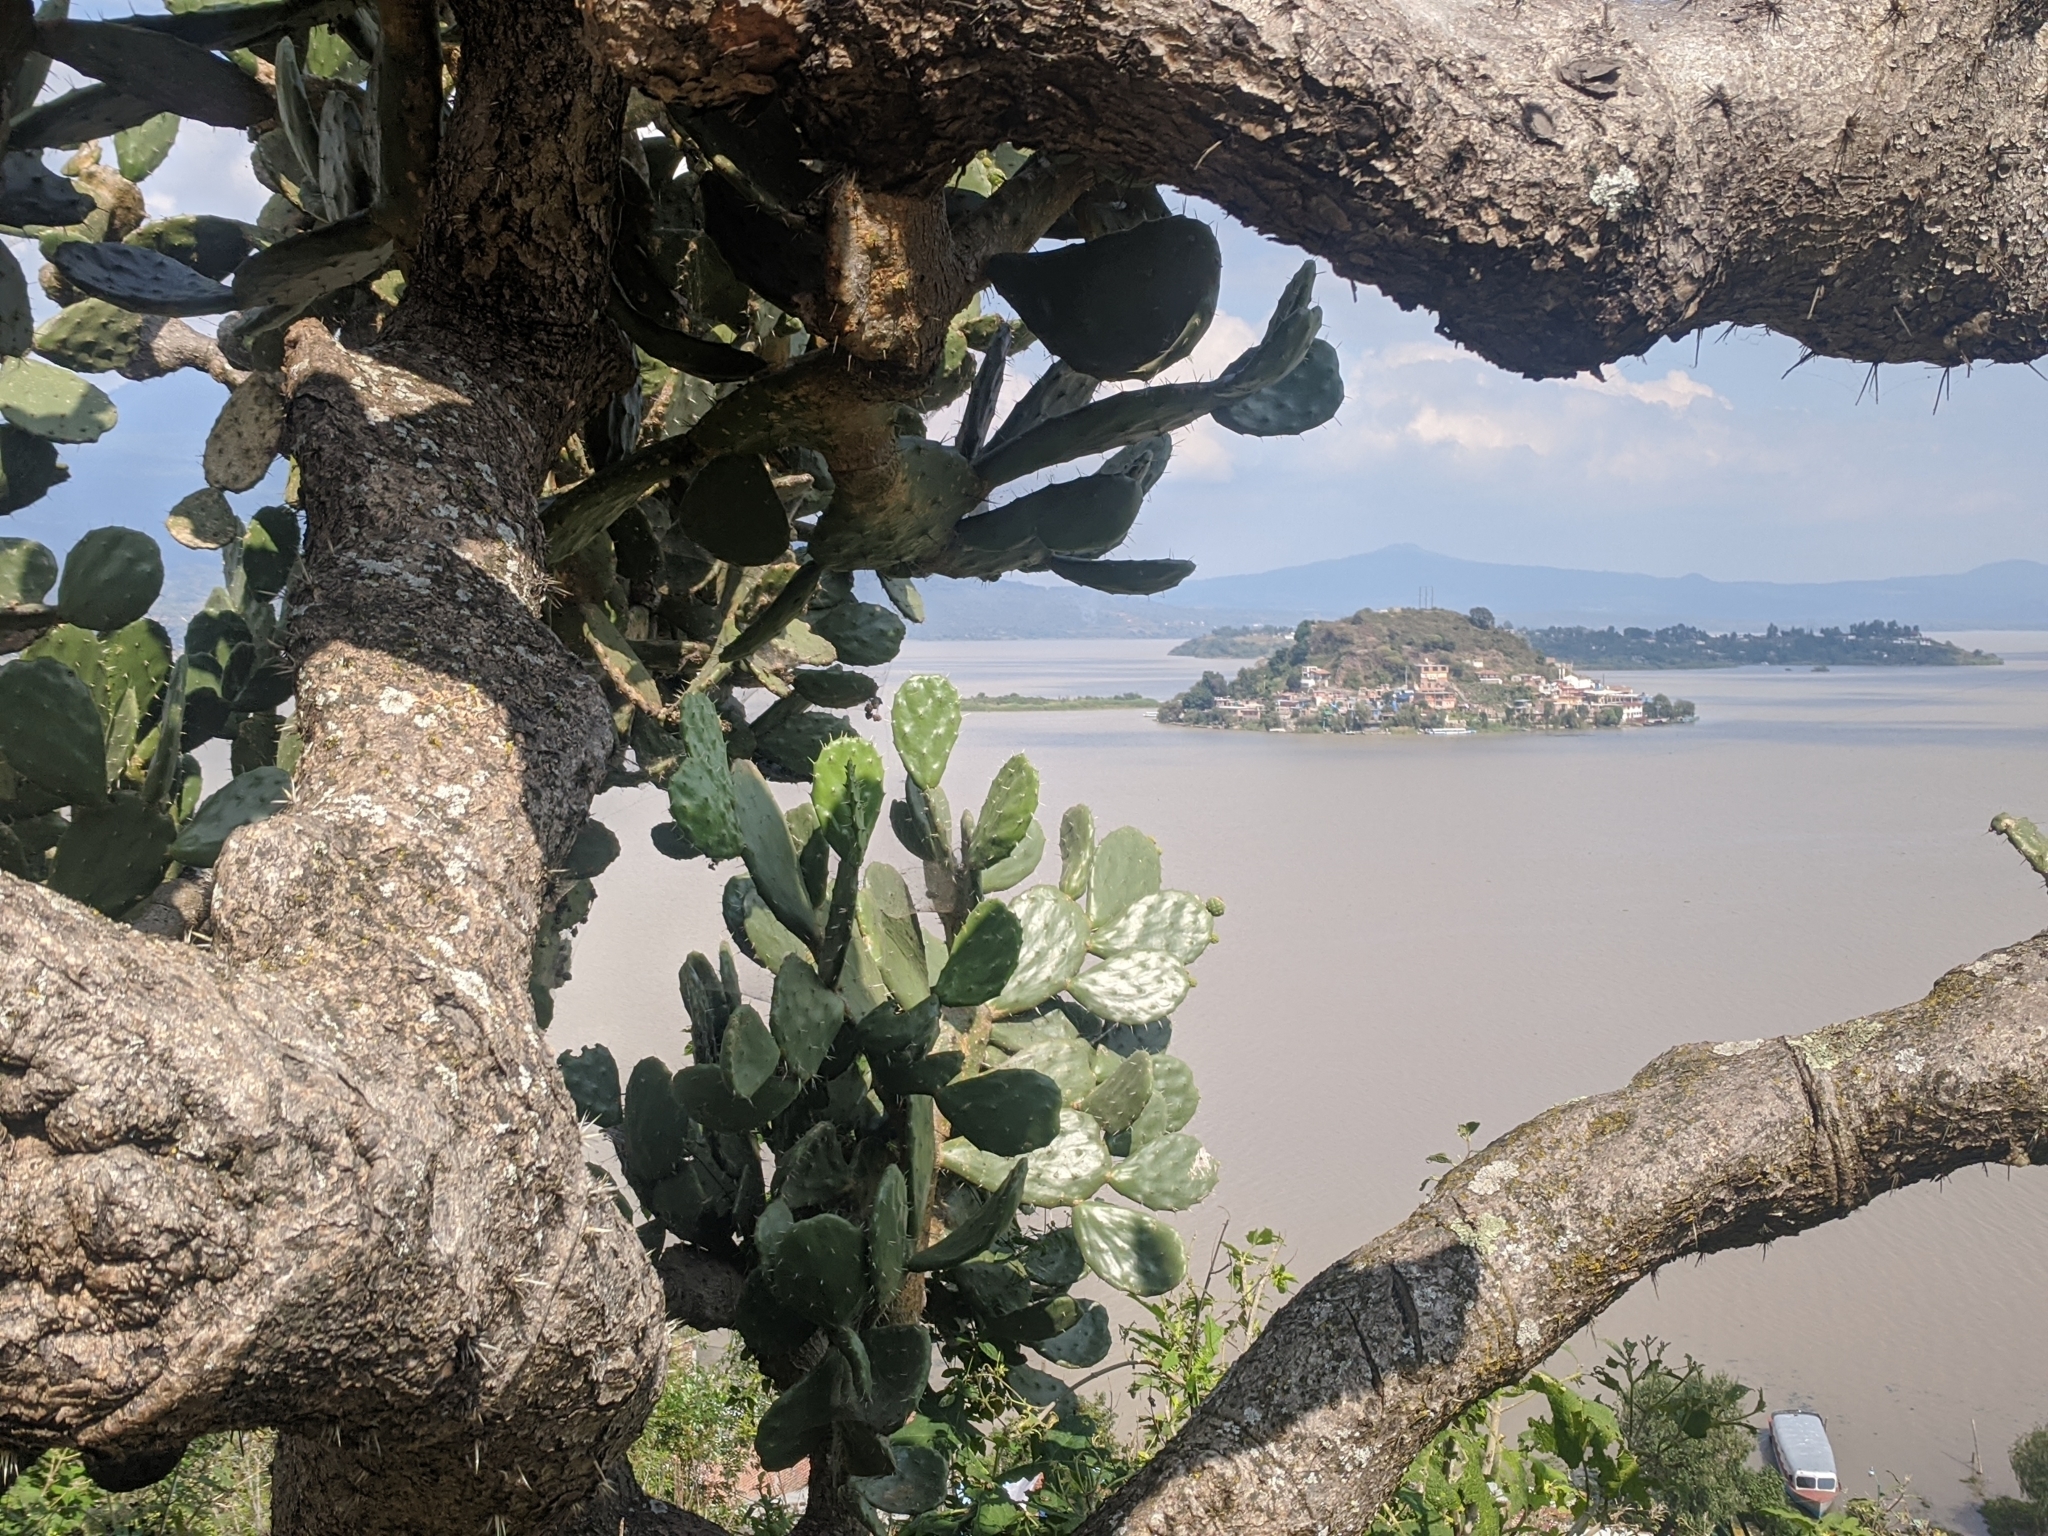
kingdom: Plantae
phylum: Tracheophyta
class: Magnoliopsida
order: Caryophyllales
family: Cactaceae
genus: Opuntia
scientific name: Opuntia tomentosa
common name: Woollyjoint pricklypear
